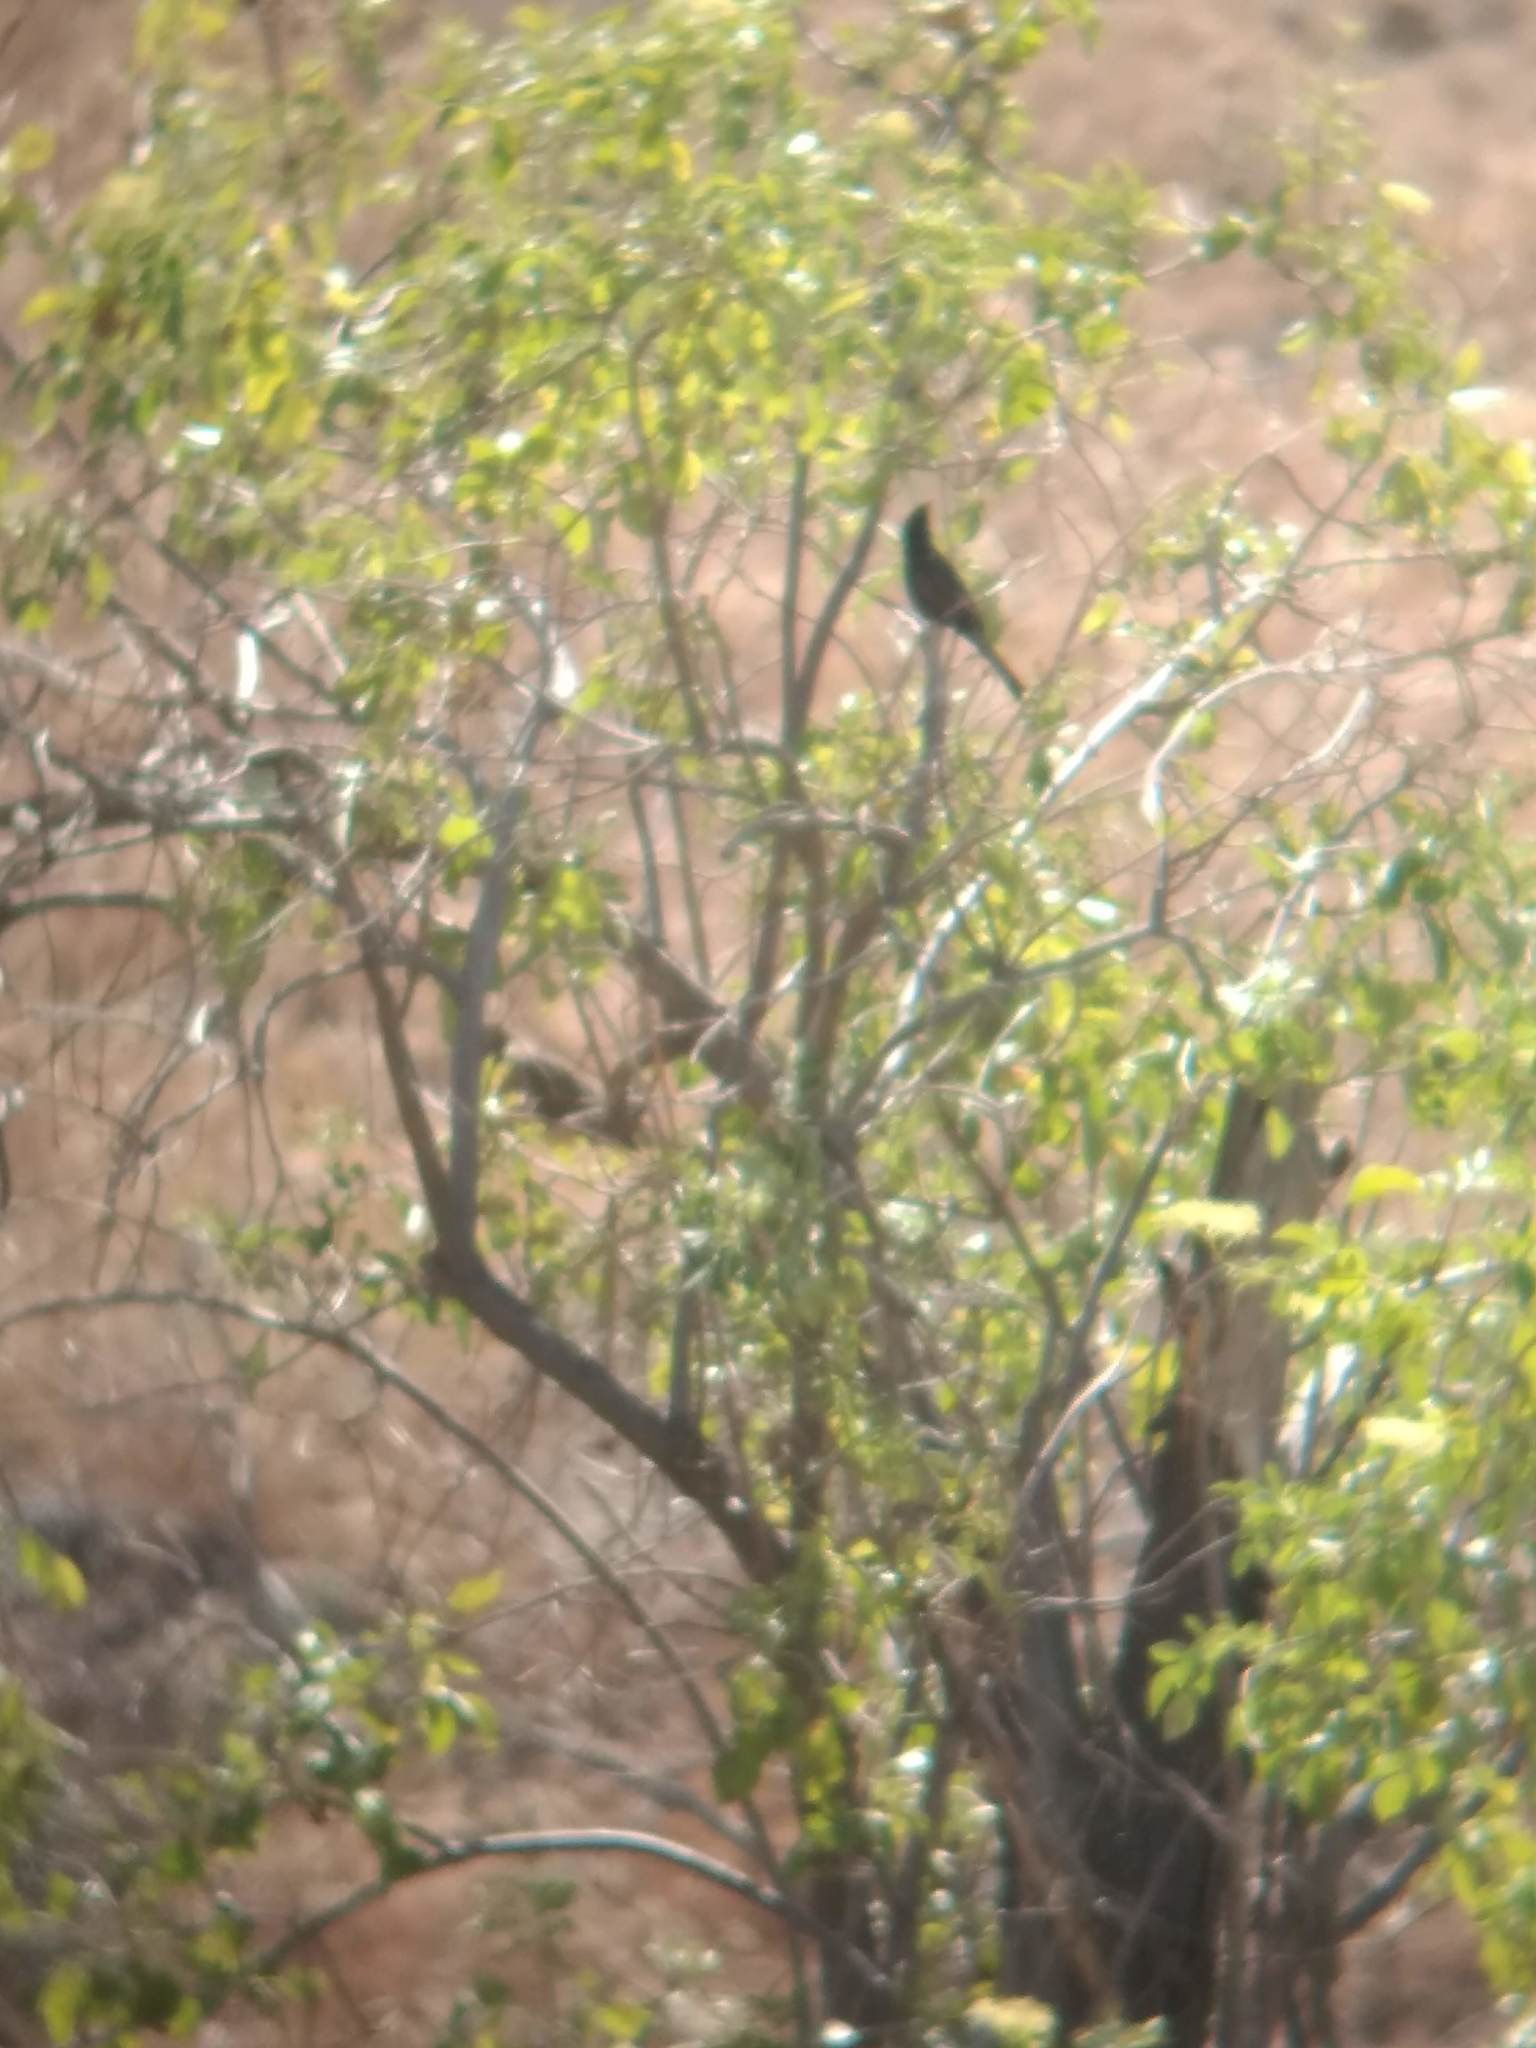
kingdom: Animalia
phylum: Chordata
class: Aves
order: Passeriformes
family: Ptilogonatidae
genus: Phainopepla
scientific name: Phainopepla nitens
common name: Phainopepla
